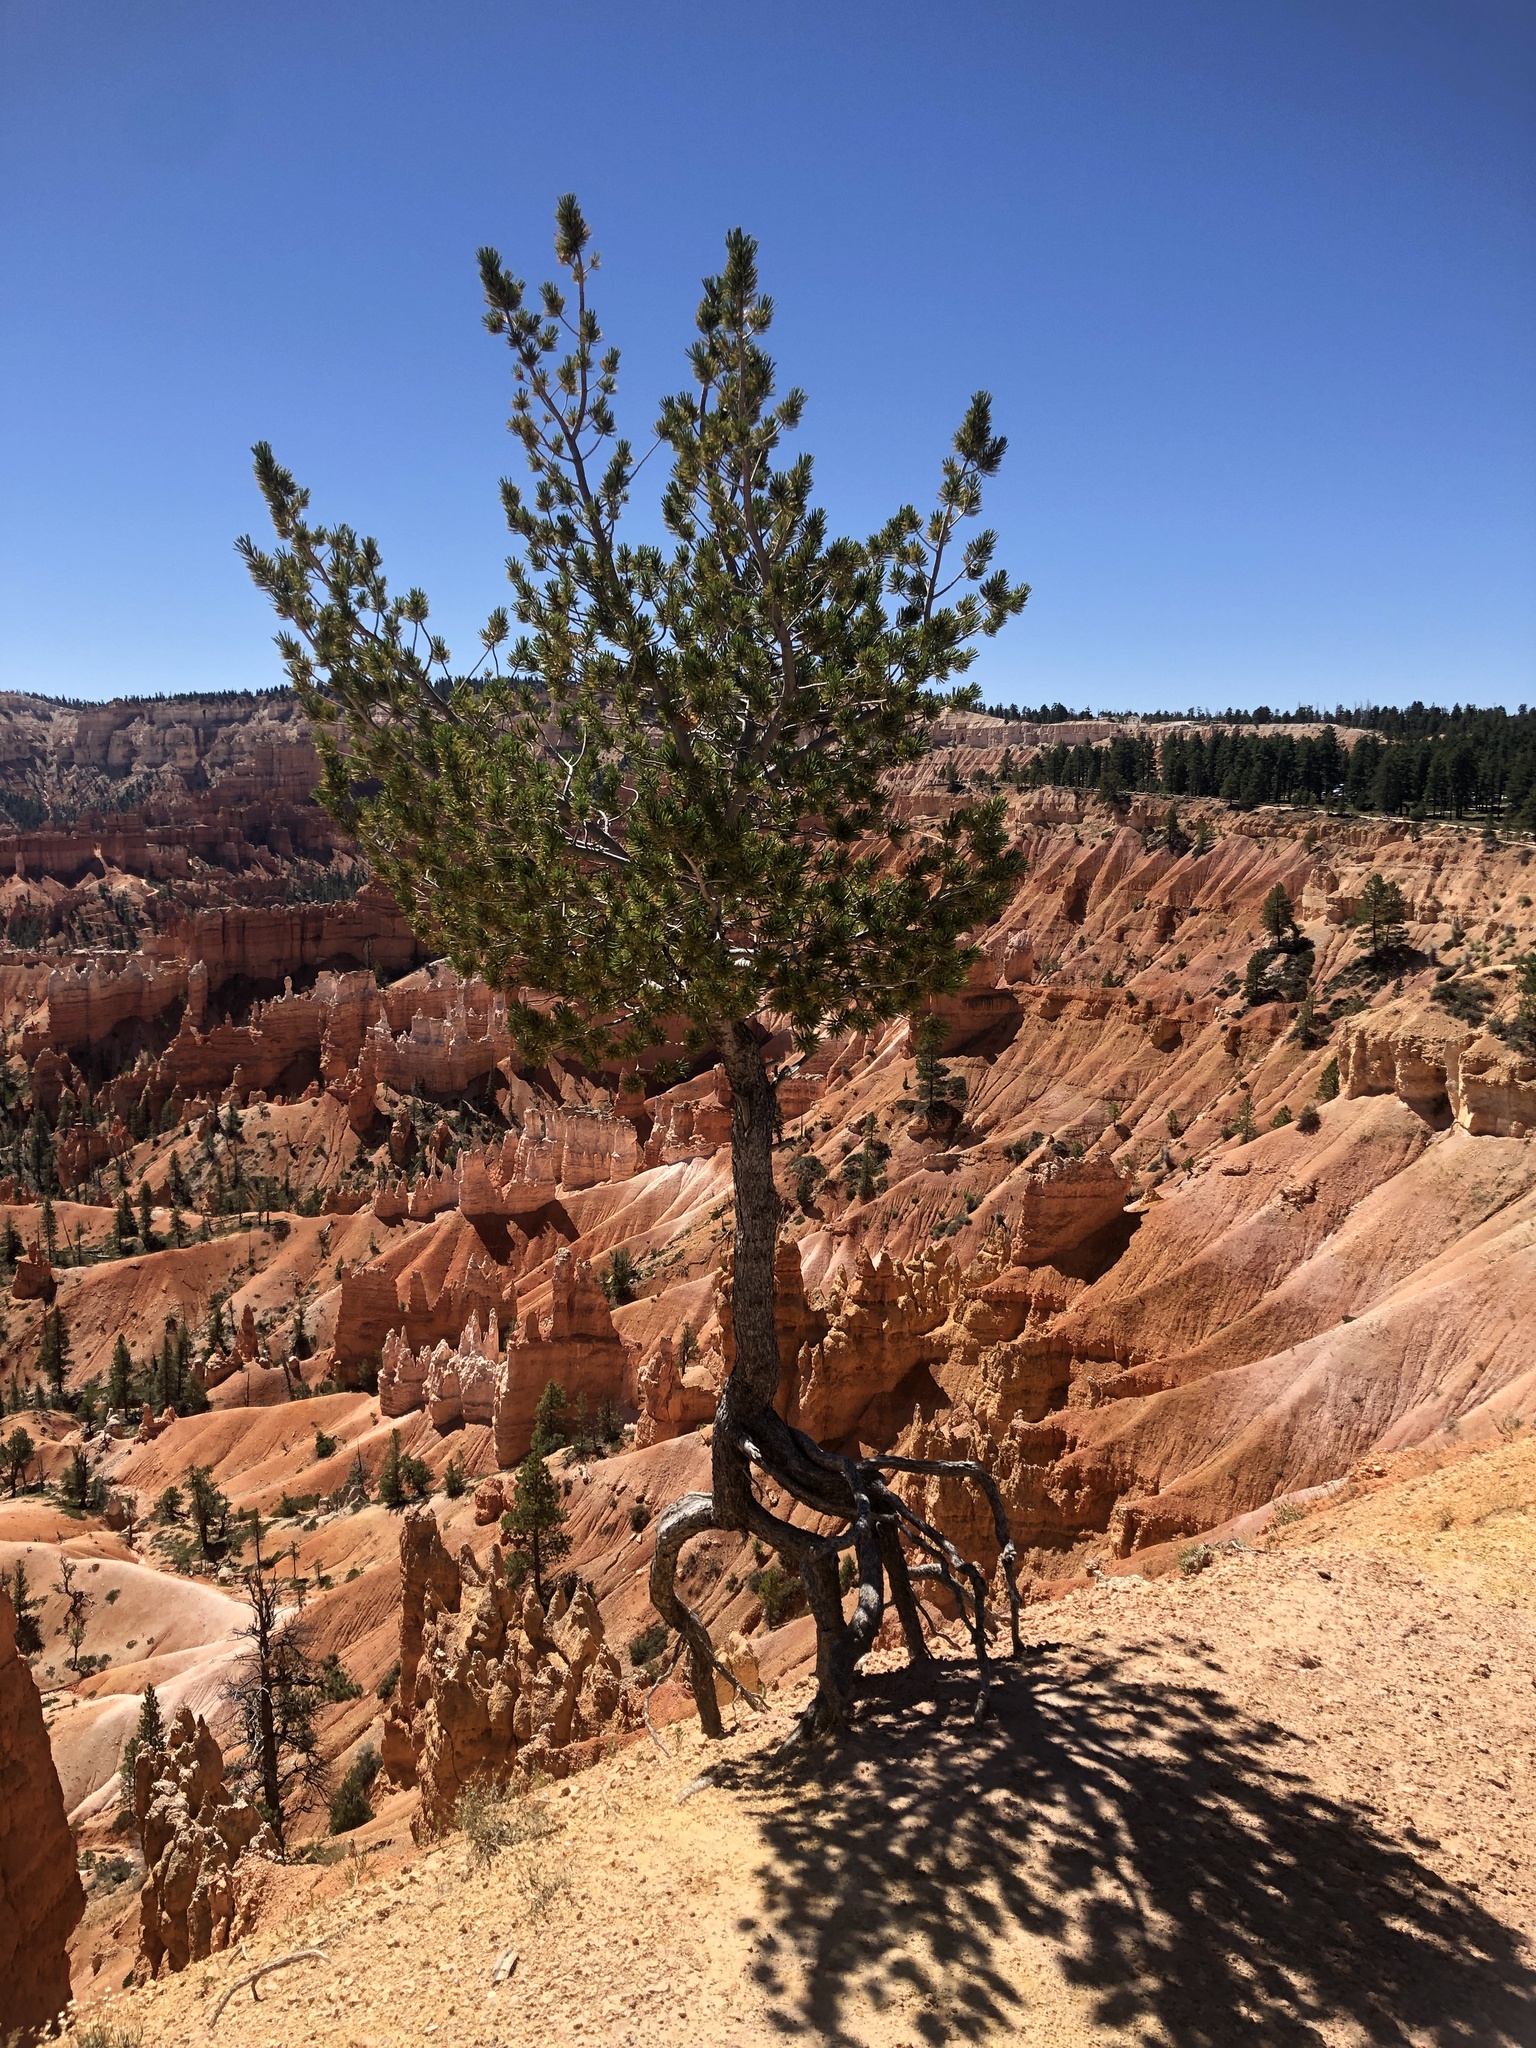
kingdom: Plantae
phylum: Tracheophyta
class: Pinopsida
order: Pinales
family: Pinaceae
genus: Pinus
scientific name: Pinus flexilis
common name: Limber pine
